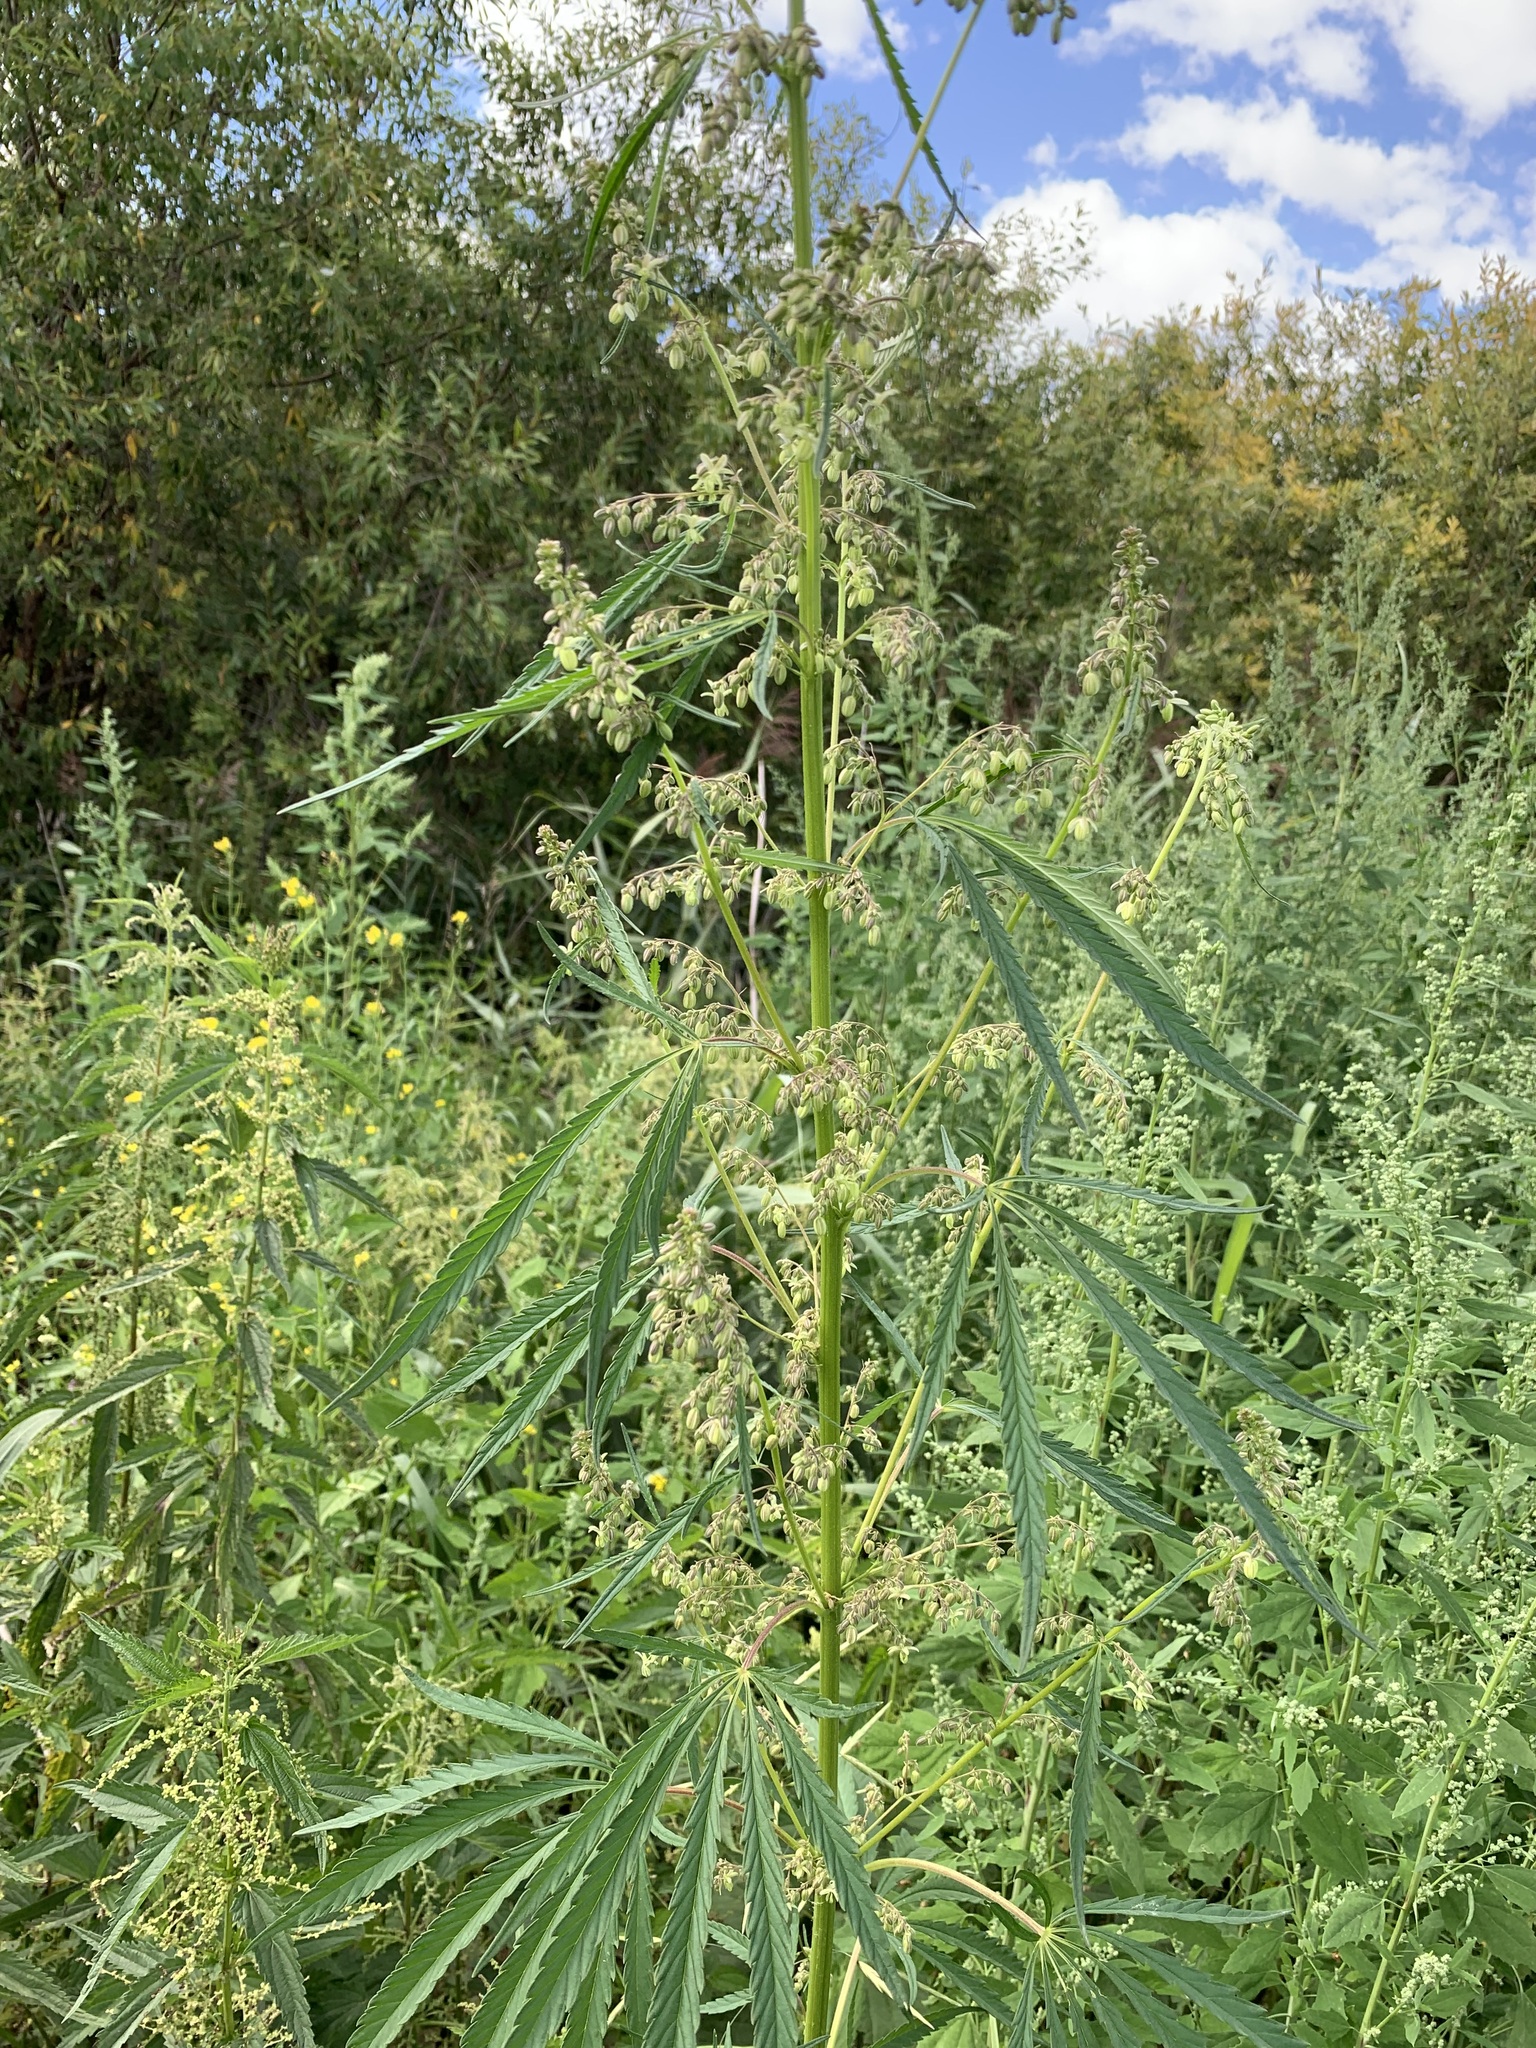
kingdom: Plantae
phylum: Tracheophyta
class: Magnoliopsida
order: Rosales
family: Cannabaceae
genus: Cannabis
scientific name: Cannabis sativa
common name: Hemp
